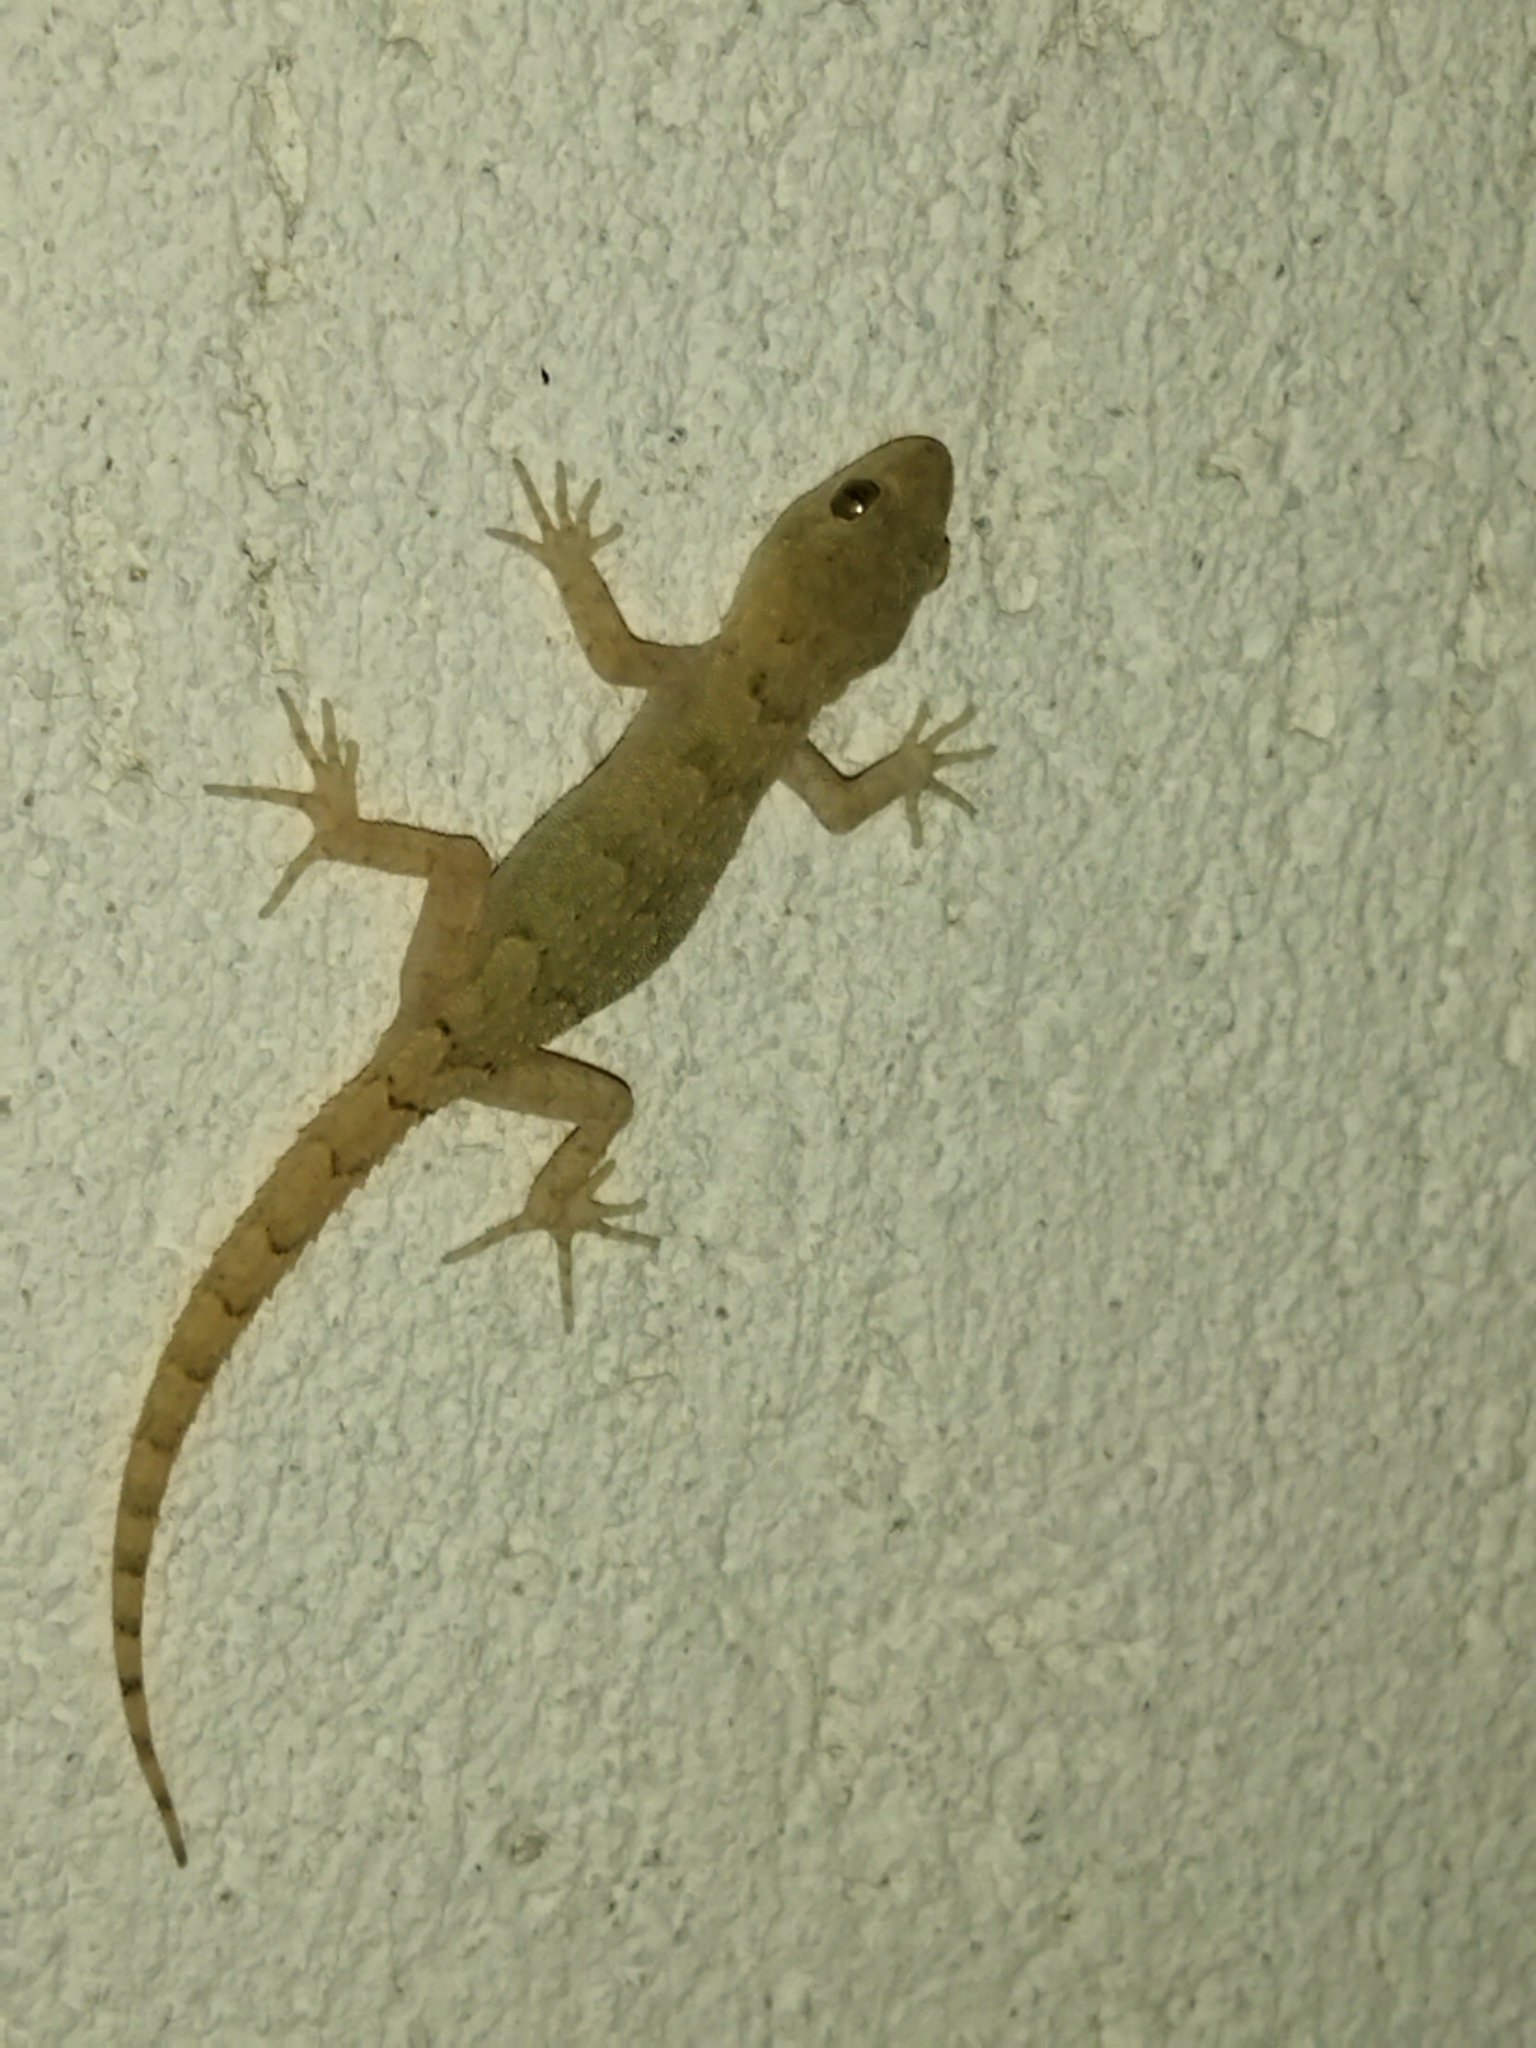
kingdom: Animalia
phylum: Chordata
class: Squamata
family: Gekkonidae
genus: Mediodactylus
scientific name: Mediodactylus kotschyi
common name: Kotschy's gecko
